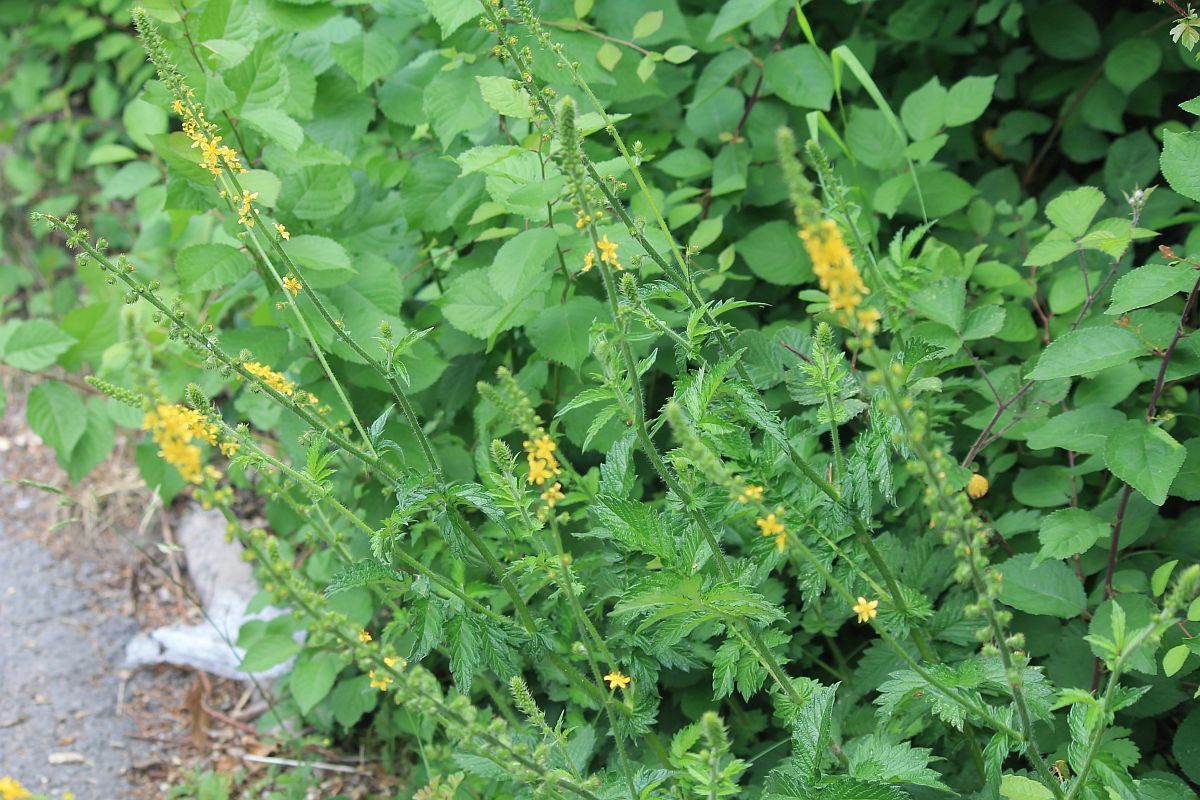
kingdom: Plantae
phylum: Tracheophyta
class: Magnoliopsida
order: Rosales
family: Rosaceae
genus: Agrimonia
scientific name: Agrimonia eupatoria
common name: Agrimony
